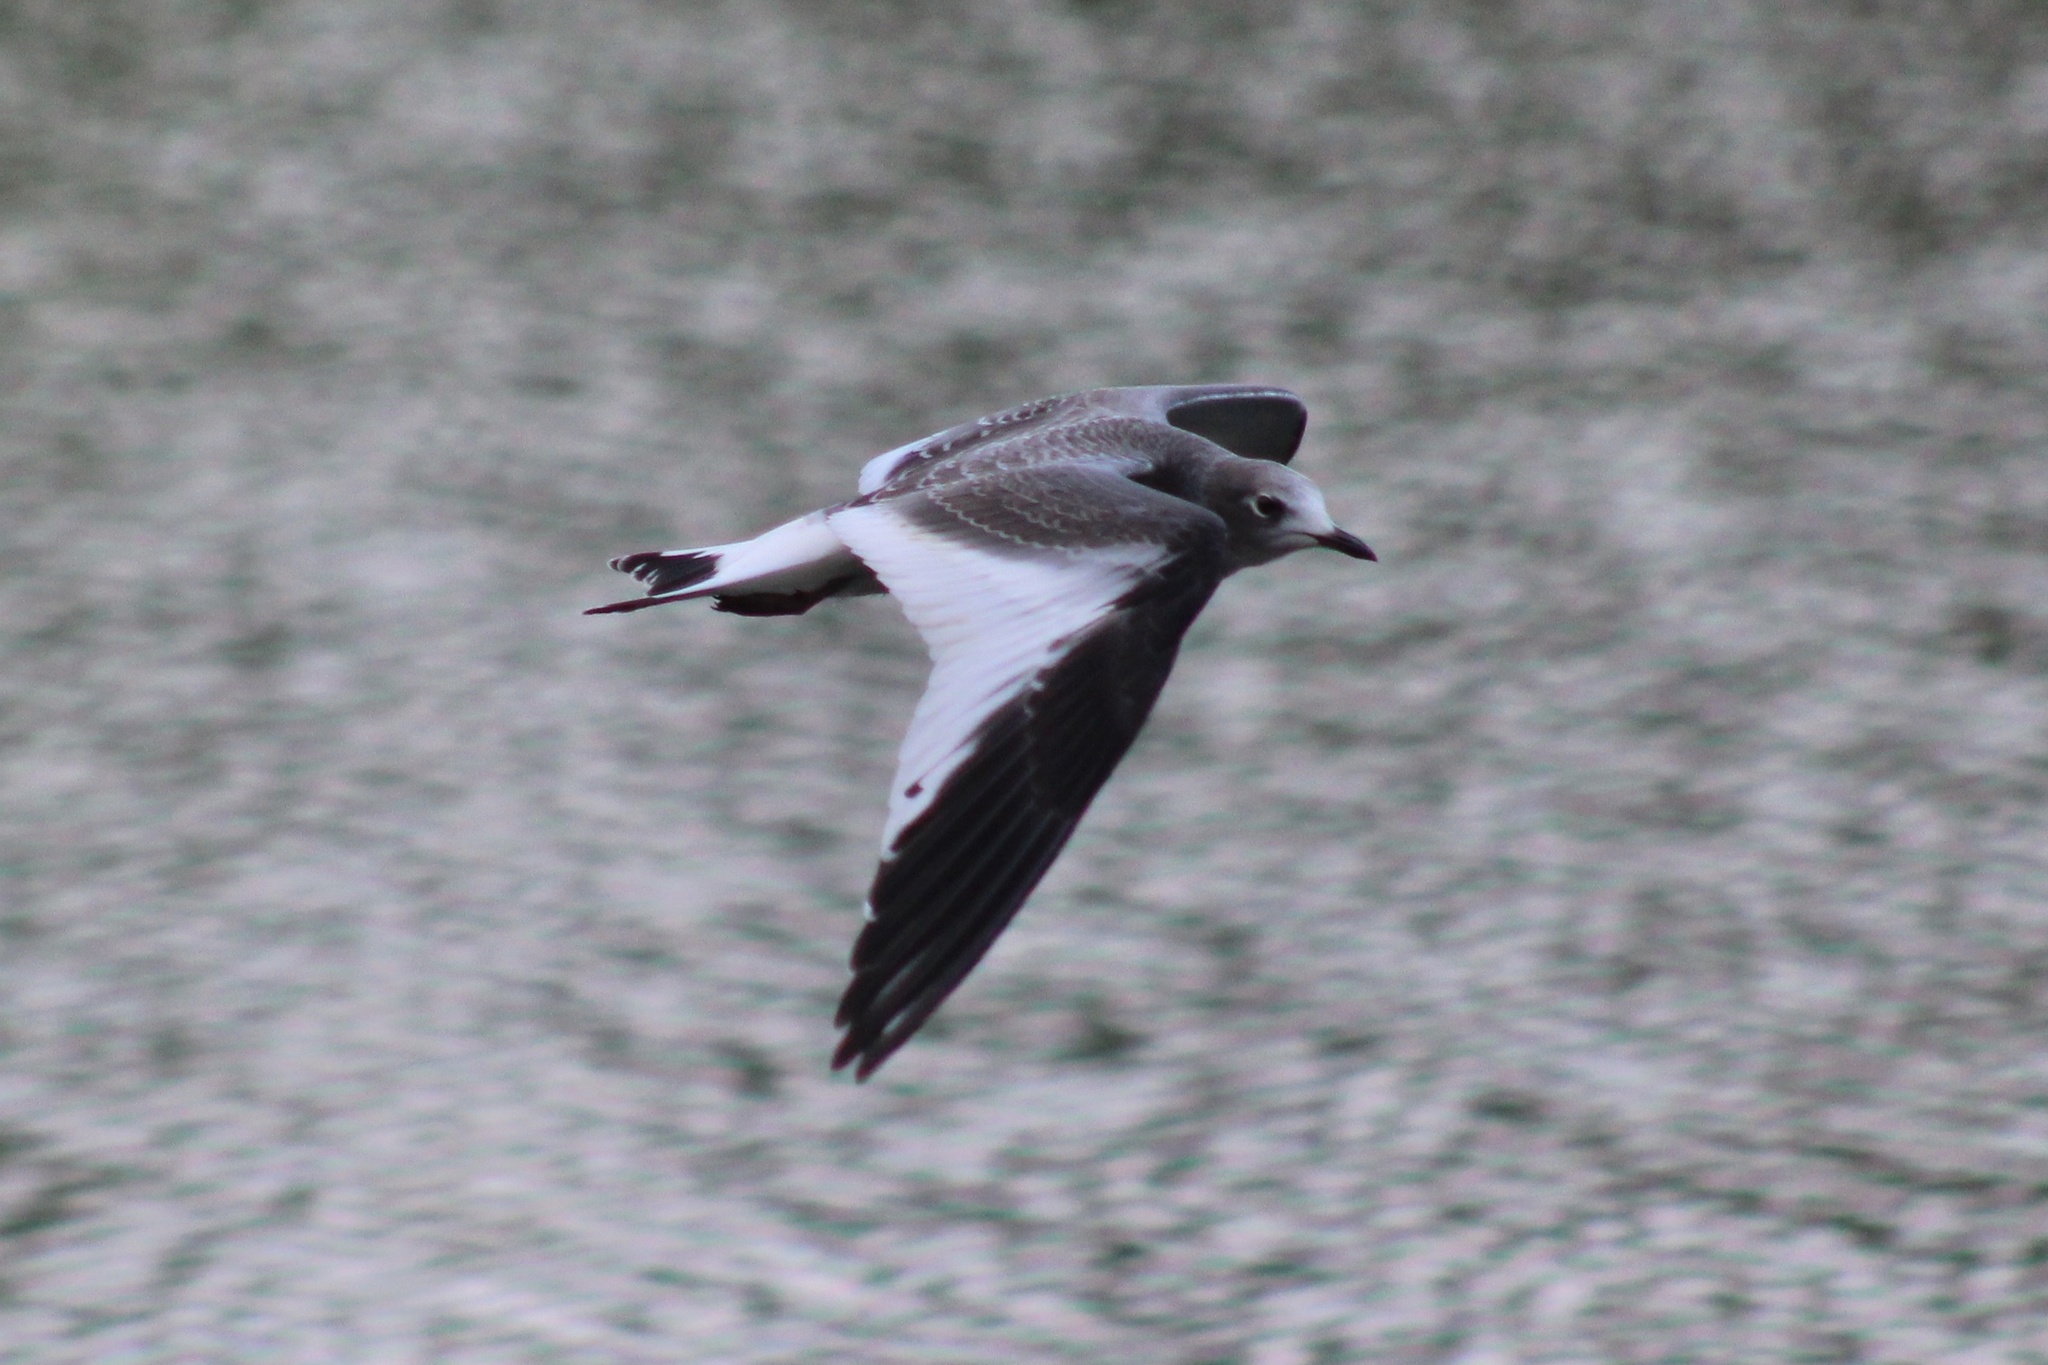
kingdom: Animalia
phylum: Chordata
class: Aves
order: Charadriiformes
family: Laridae
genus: Xema
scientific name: Xema sabini
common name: Sabine's gull
